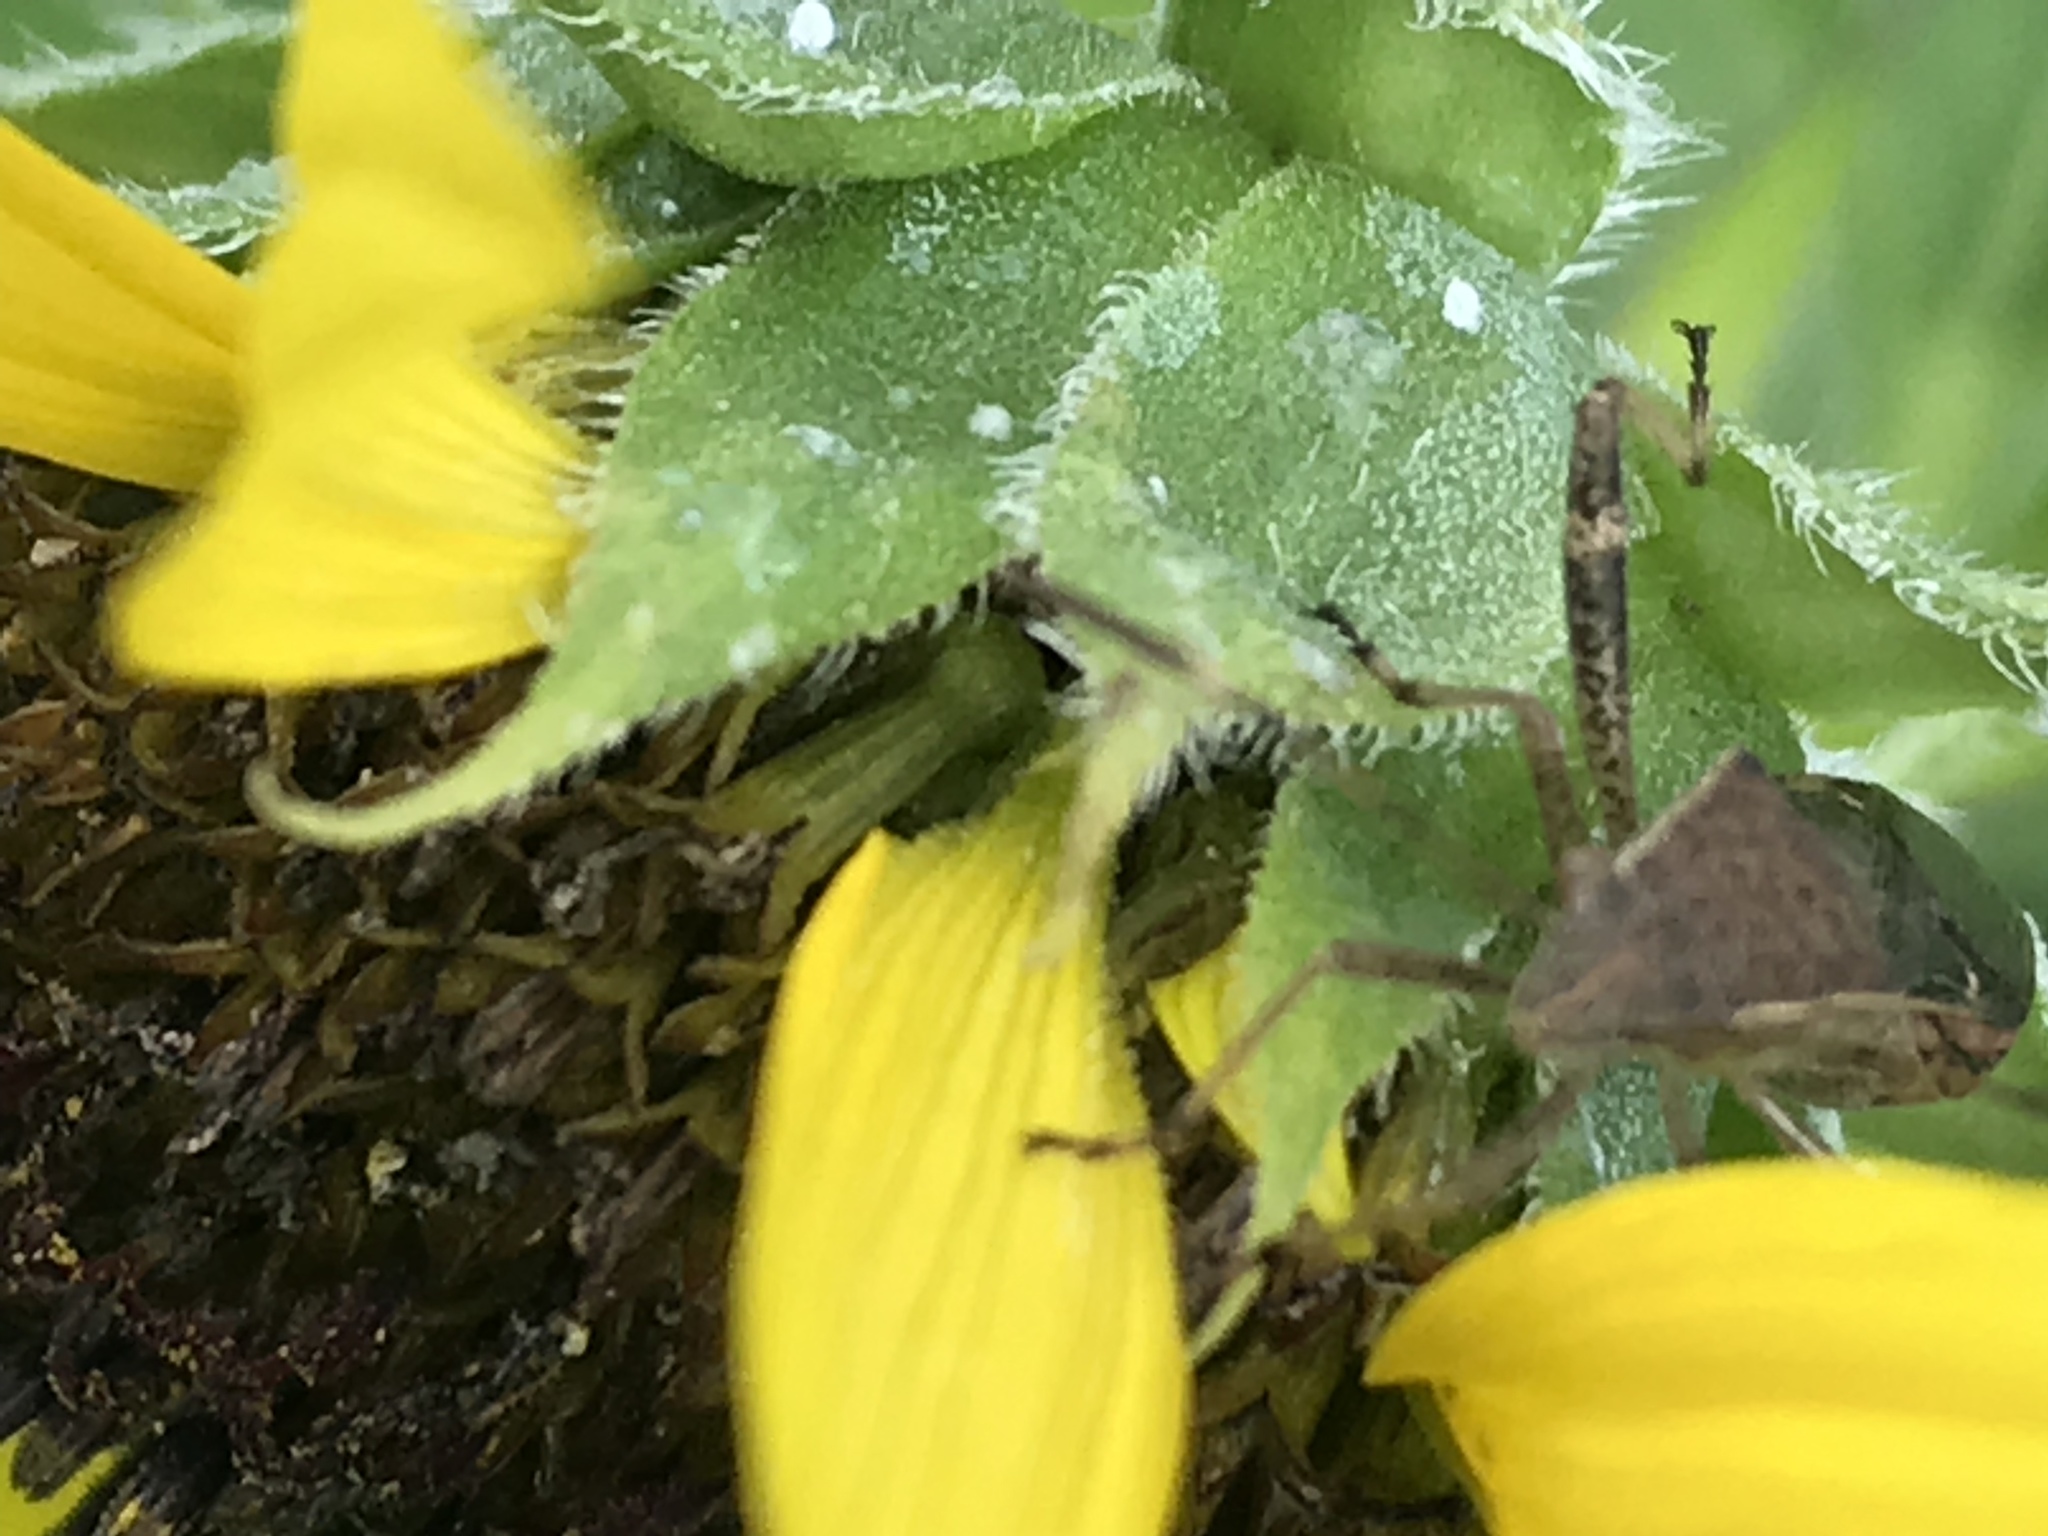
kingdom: Animalia
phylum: Arthropoda
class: Insecta
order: Hemiptera
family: Alydidae
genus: Burtinus
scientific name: Burtinus notatipennis
